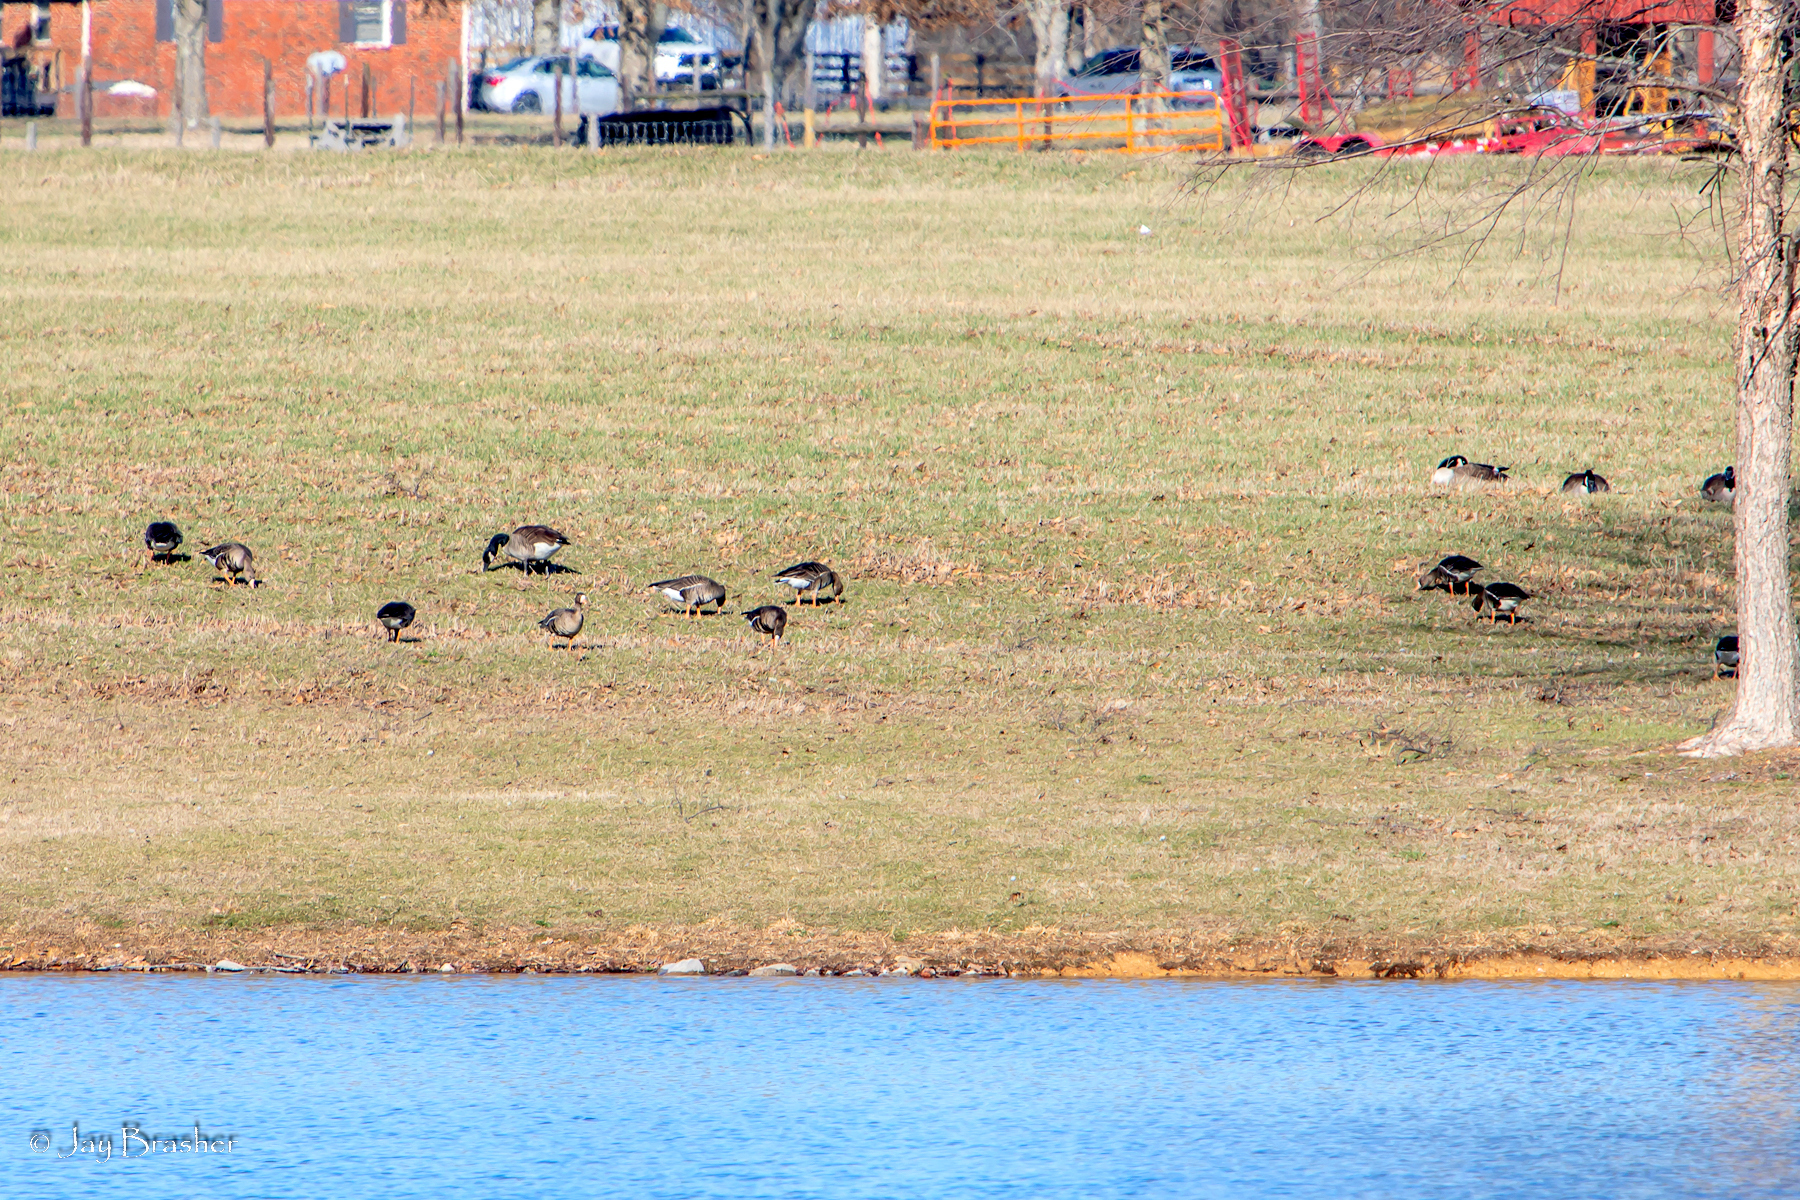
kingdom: Animalia
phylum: Chordata
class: Aves
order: Anseriformes
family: Anatidae
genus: Anser
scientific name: Anser albifrons
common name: Greater white-fronted goose
